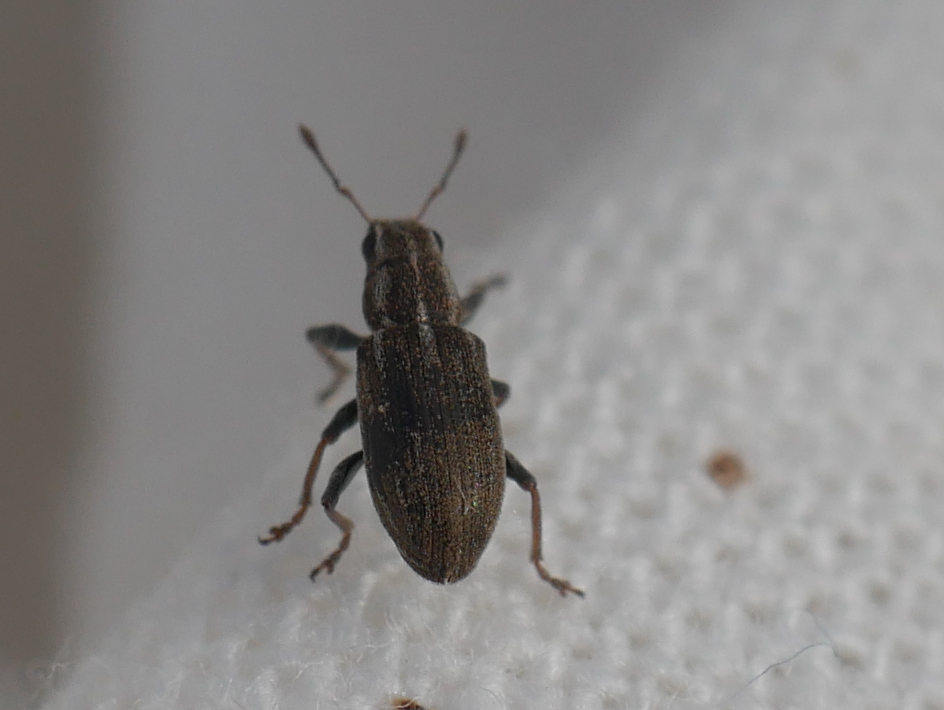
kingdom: Animalia
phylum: Arthropoda
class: Insecta
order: Coleoptera
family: Curculionidae
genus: Sitona
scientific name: Sitona lineatus
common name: Weevil
